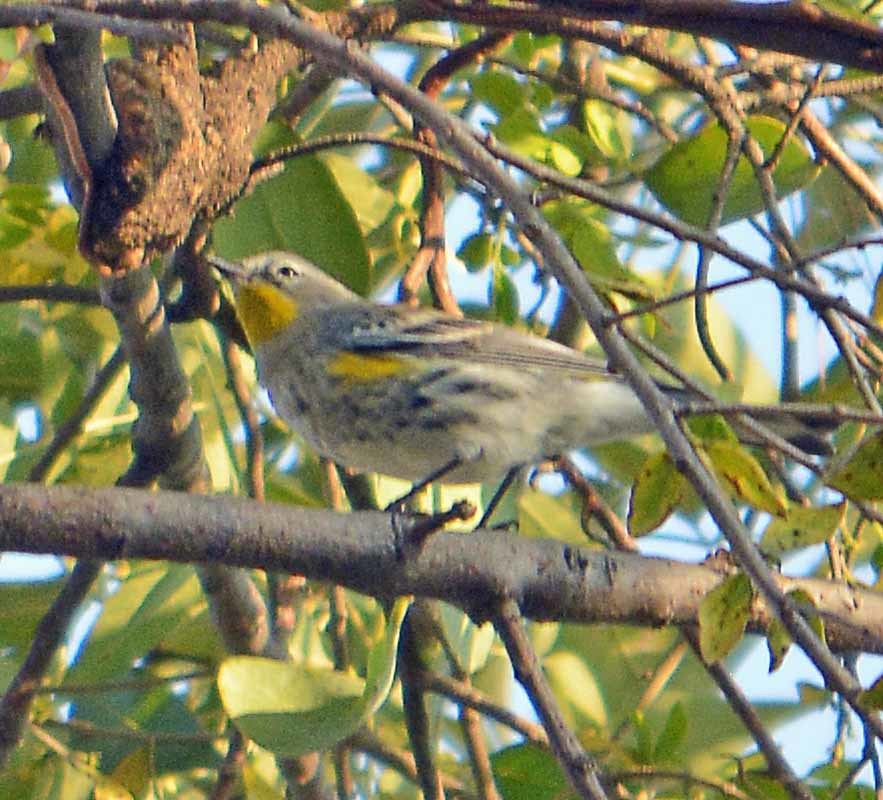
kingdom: Animalia
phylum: Chordata
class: Aves
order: Passeriformes
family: Parulidae
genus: Setophaga
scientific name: Setophaga coronata
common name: Myrtle warbler
